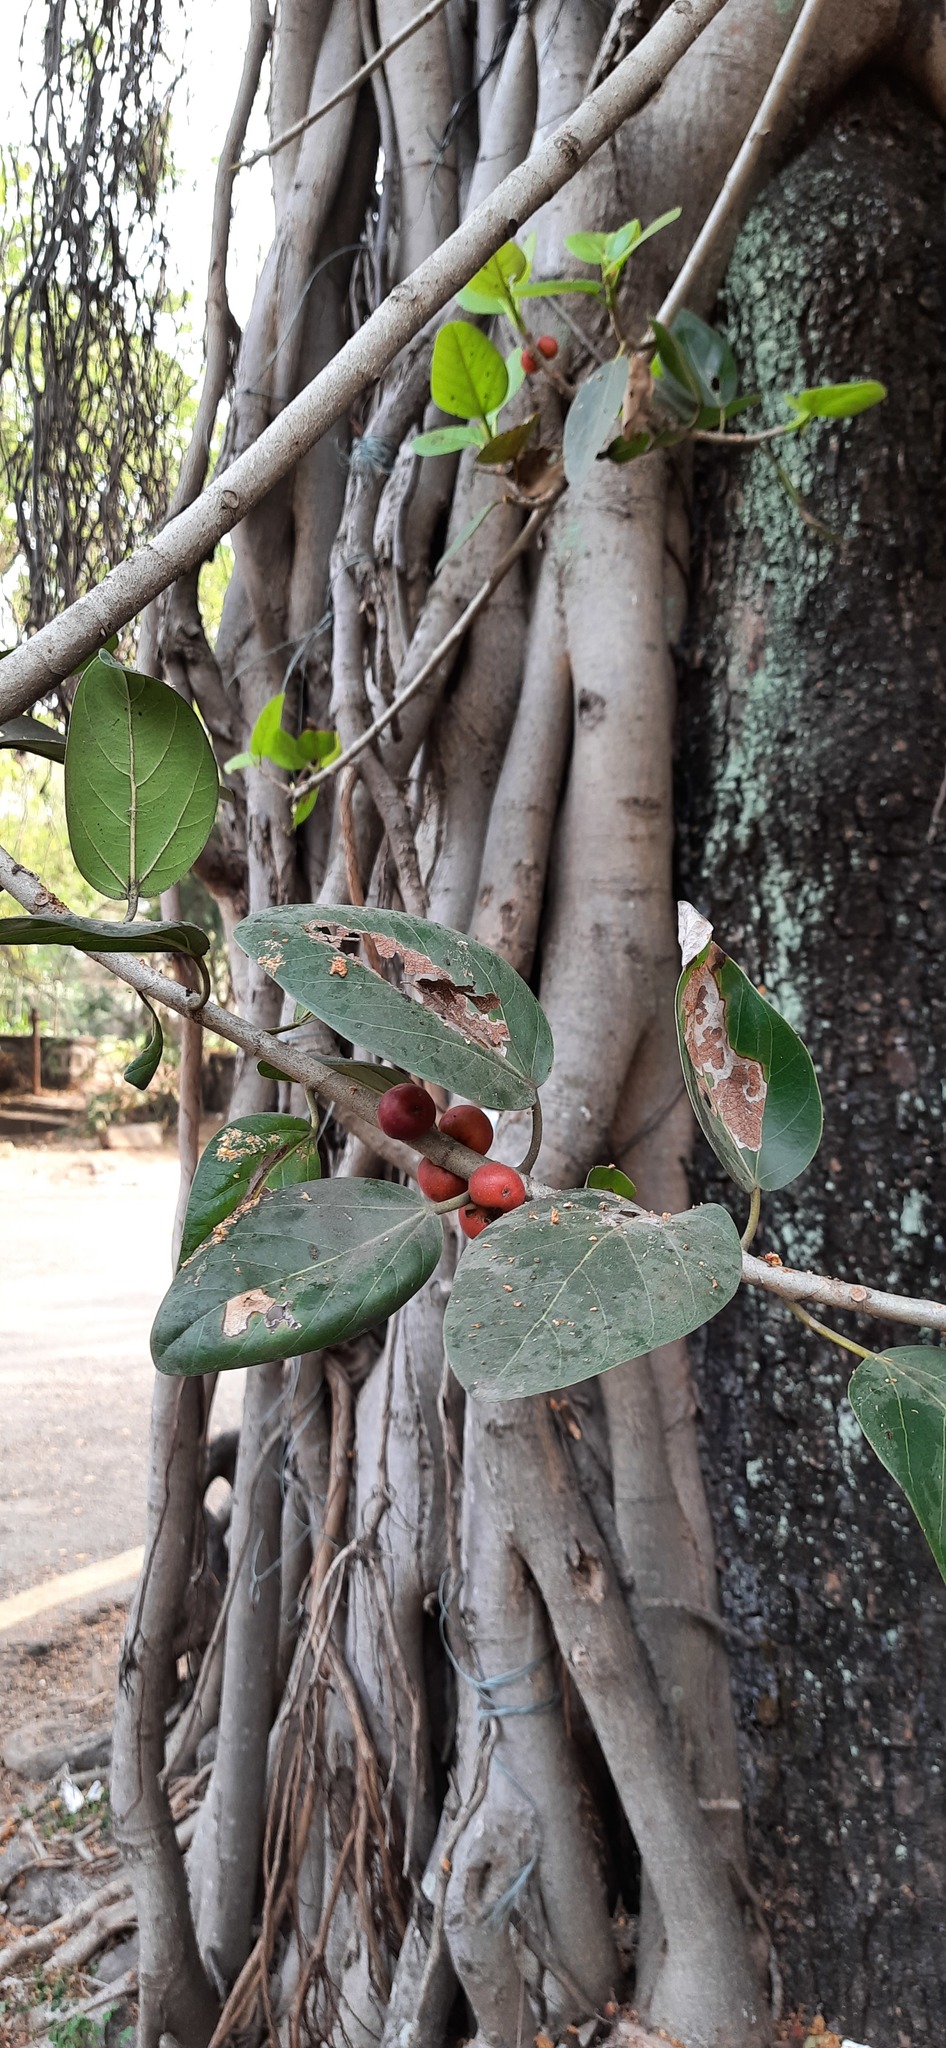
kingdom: Plantae
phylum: Tracheophyta
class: Magnoliopsida
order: Rosales
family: Moraceae
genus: Ficus
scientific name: Ficus benghalensis
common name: Indian banyan
